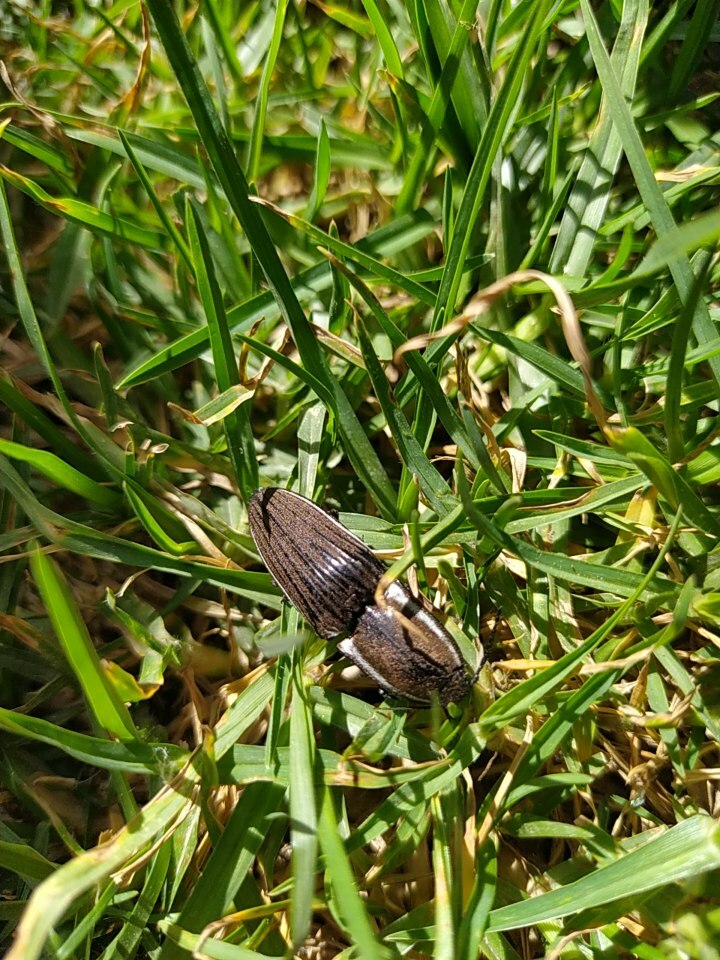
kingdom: Animalia
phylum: Arthropoda
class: Insecta
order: Coleoptera
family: Elateridae
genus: Chalcolepidius
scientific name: Chalcolepidius
